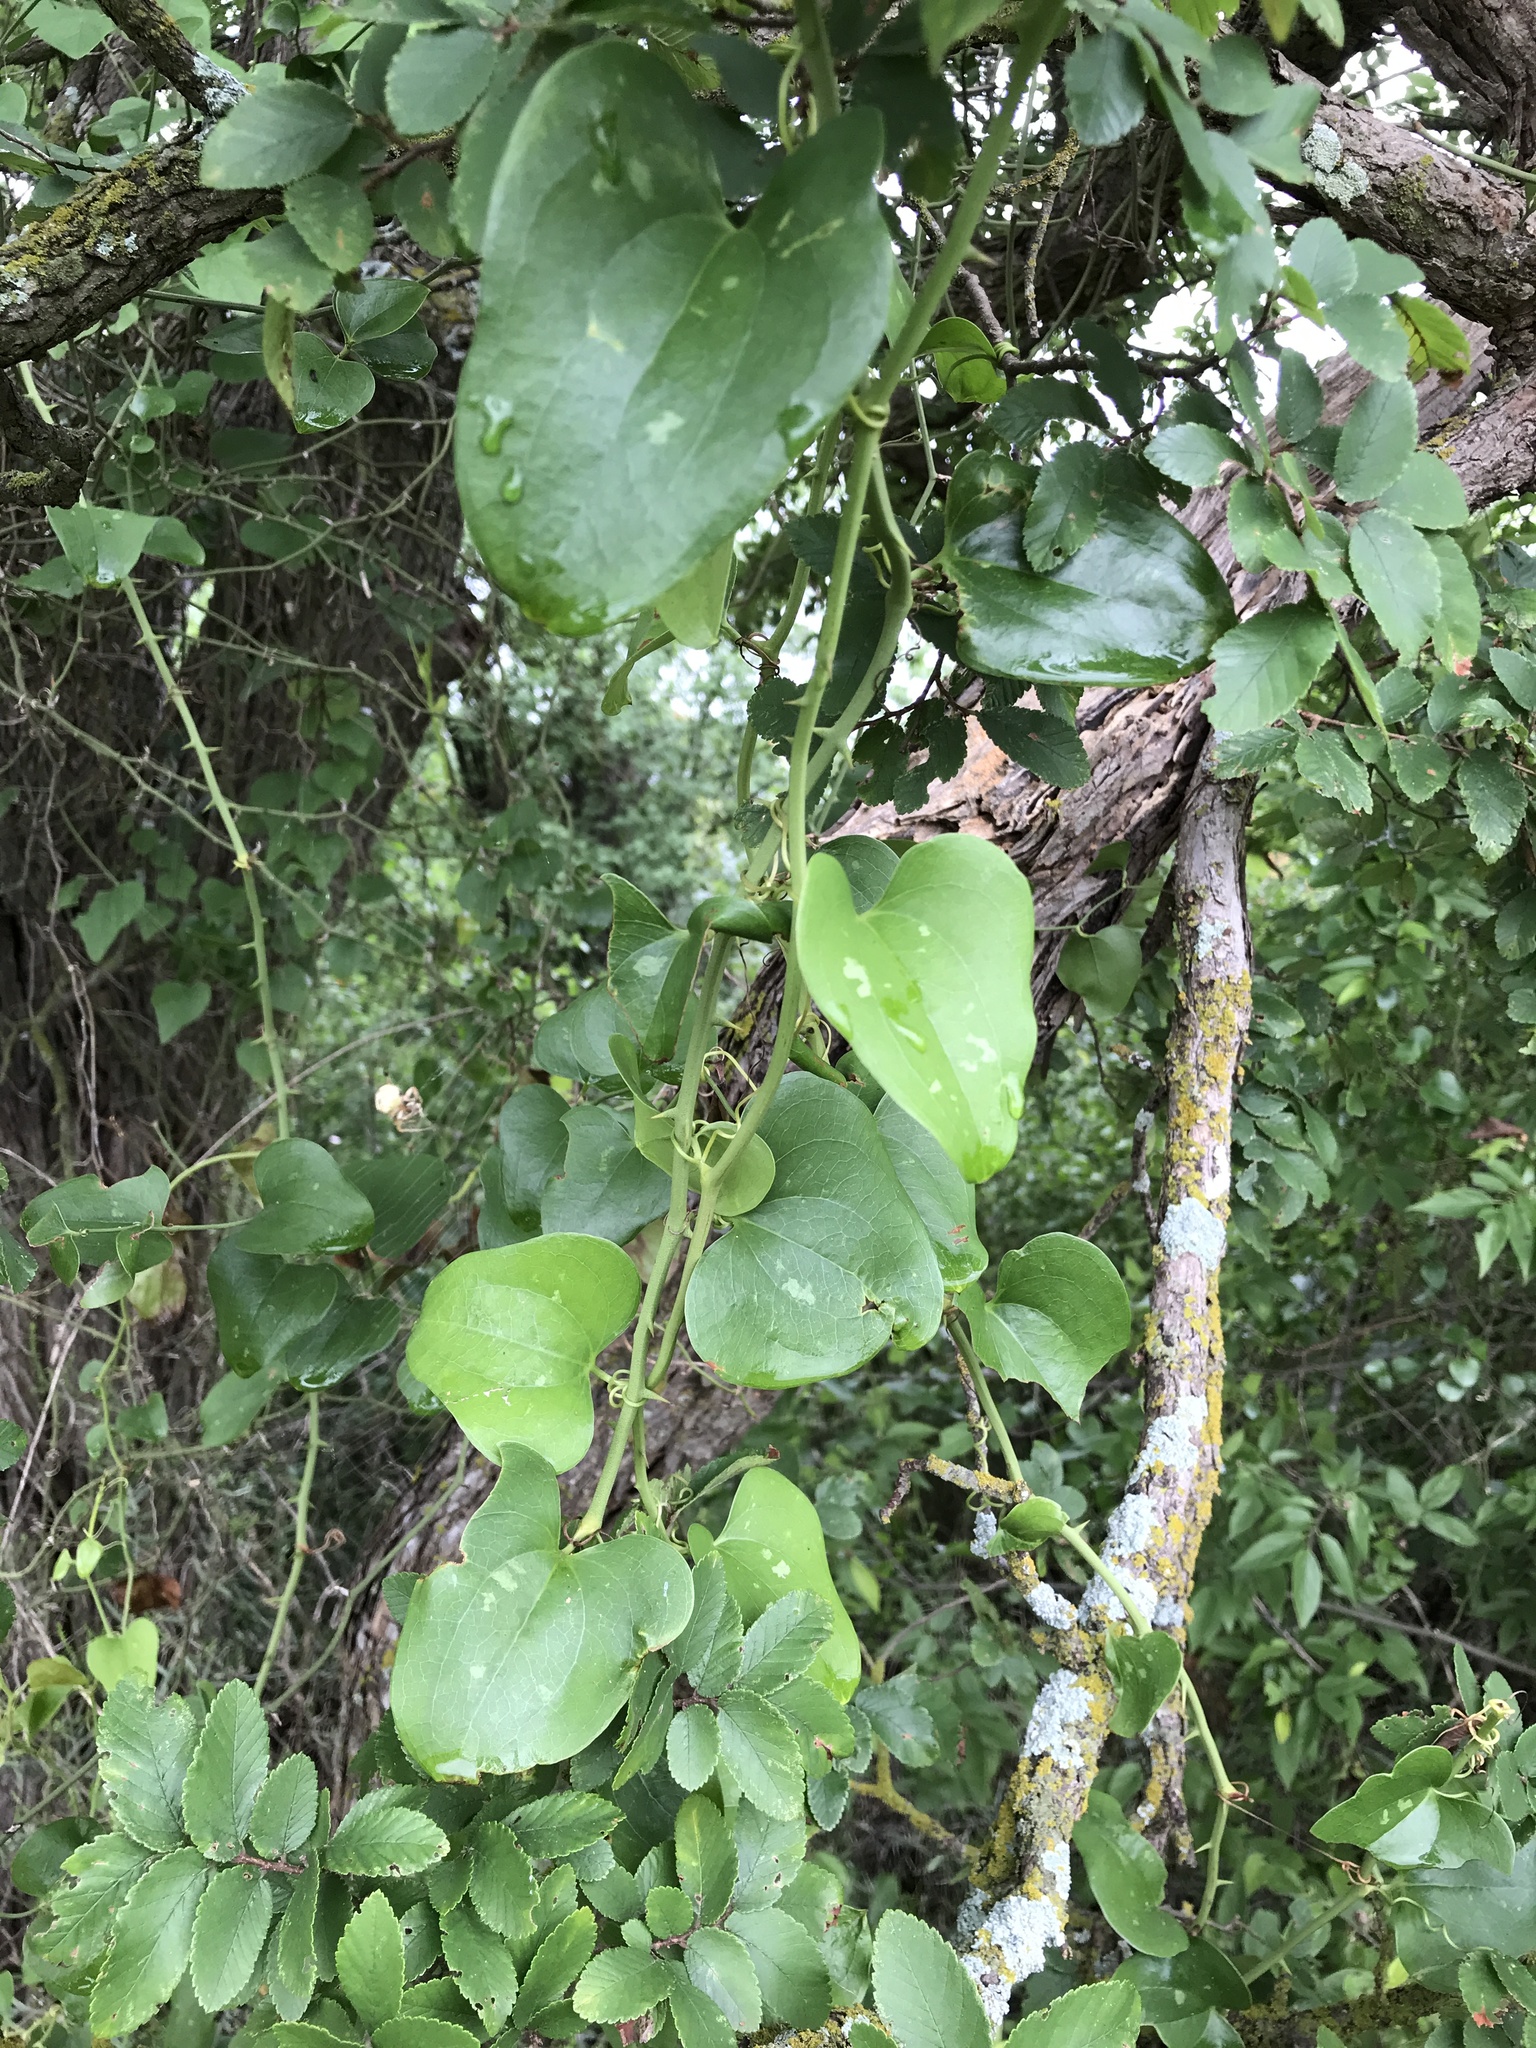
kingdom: Plantae
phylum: Tracheophyta
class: Liliopsida
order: Liliales
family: Smilacaceae
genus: Smilax
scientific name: Smilax bona-nox
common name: Catbrier
